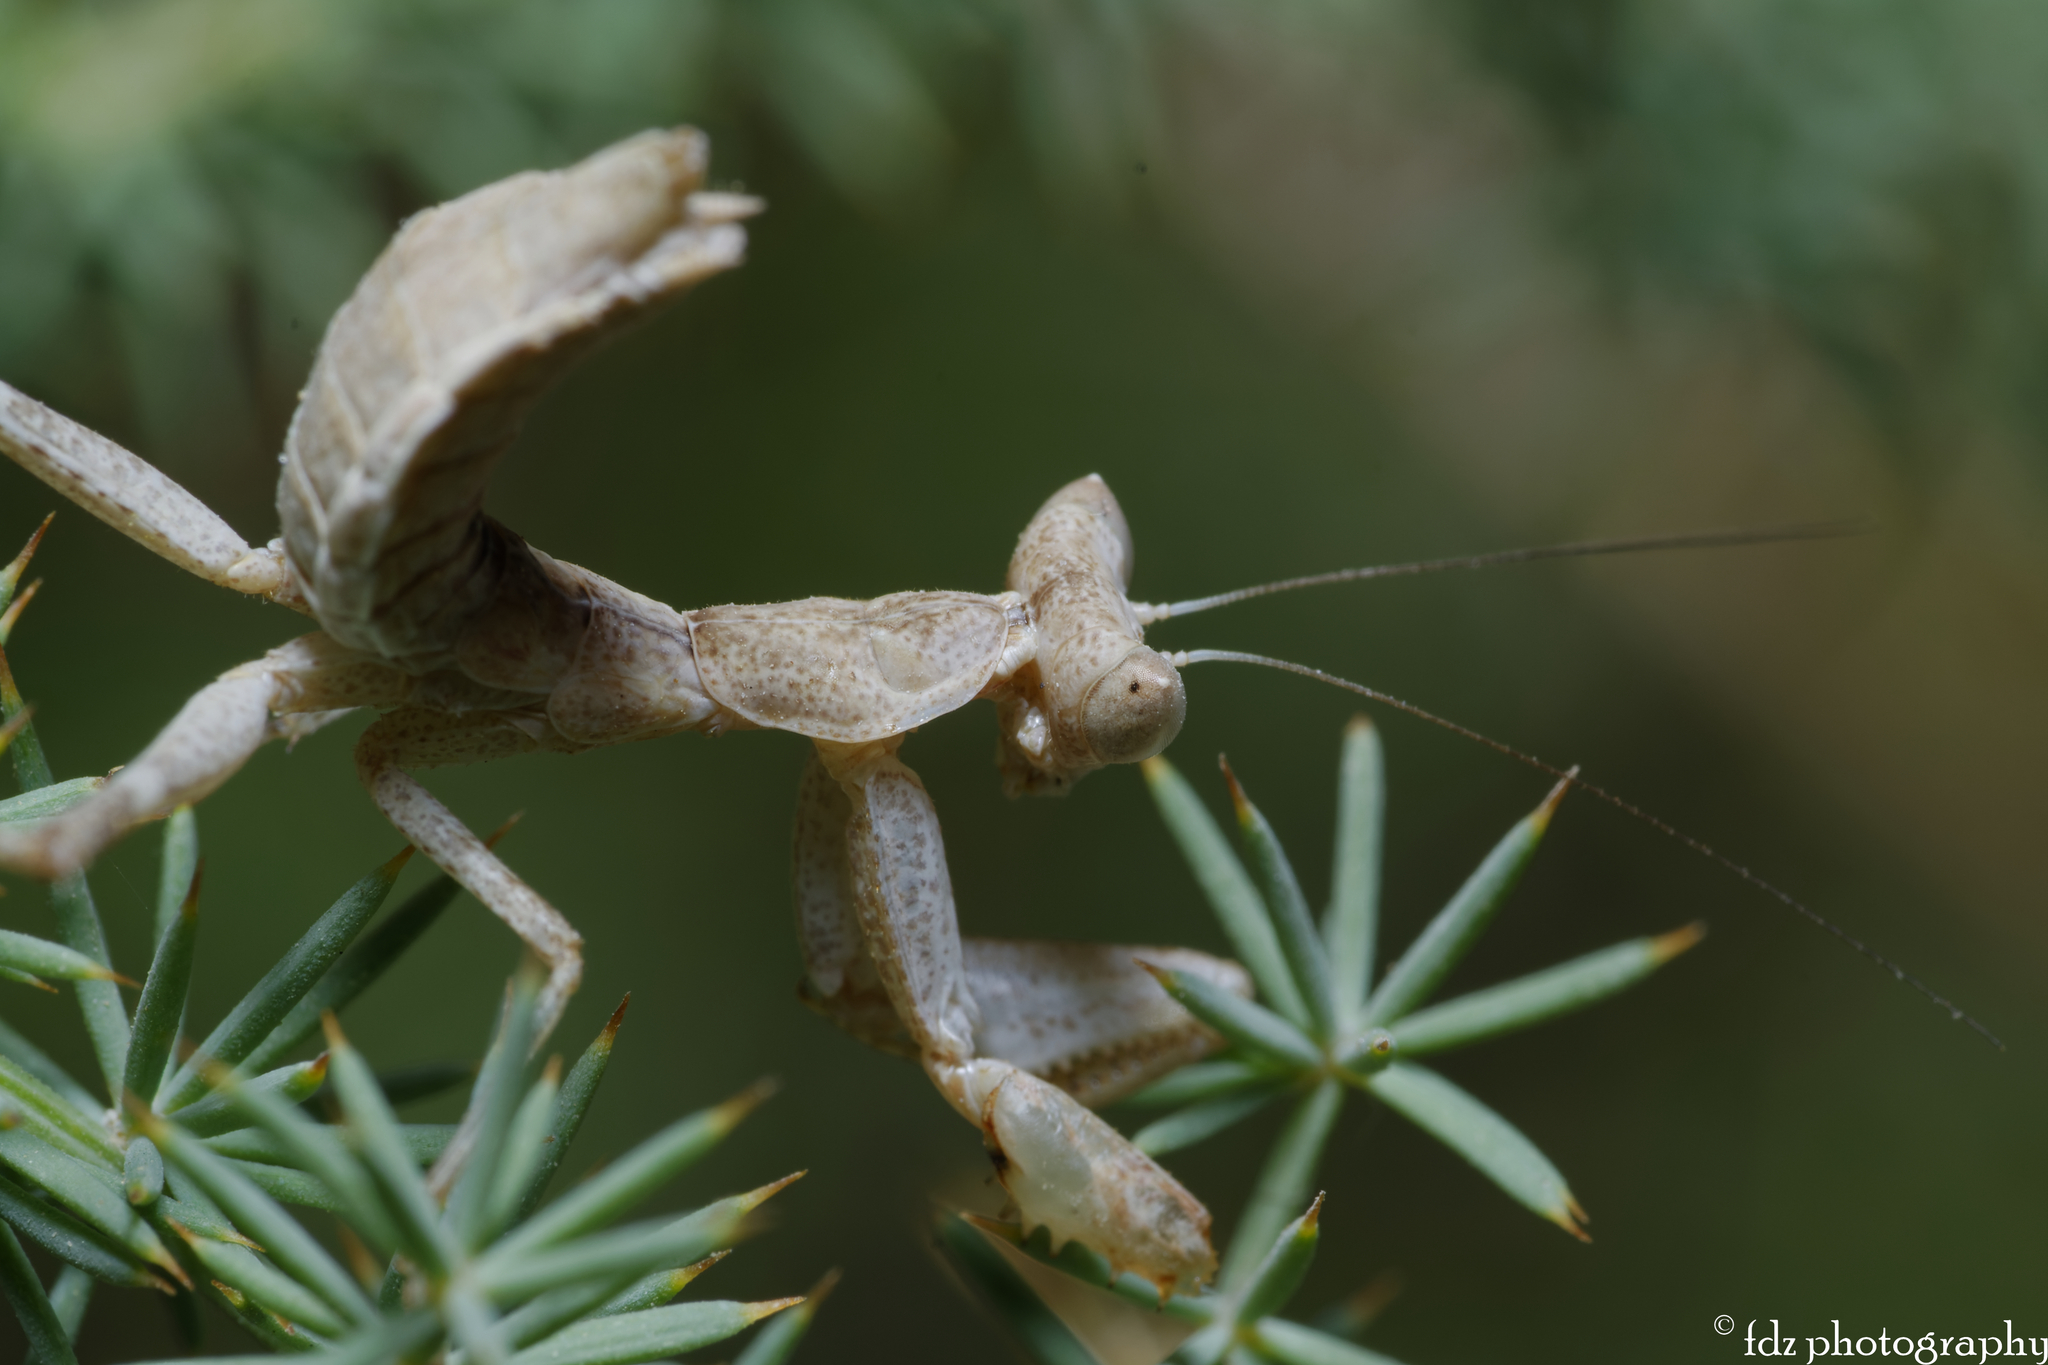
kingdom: Animalia
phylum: Arthropoda
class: Insecta
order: Mantodea
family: Amelidae
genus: Ameles
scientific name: Ameles spallanzania
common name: European dwarf mantis
